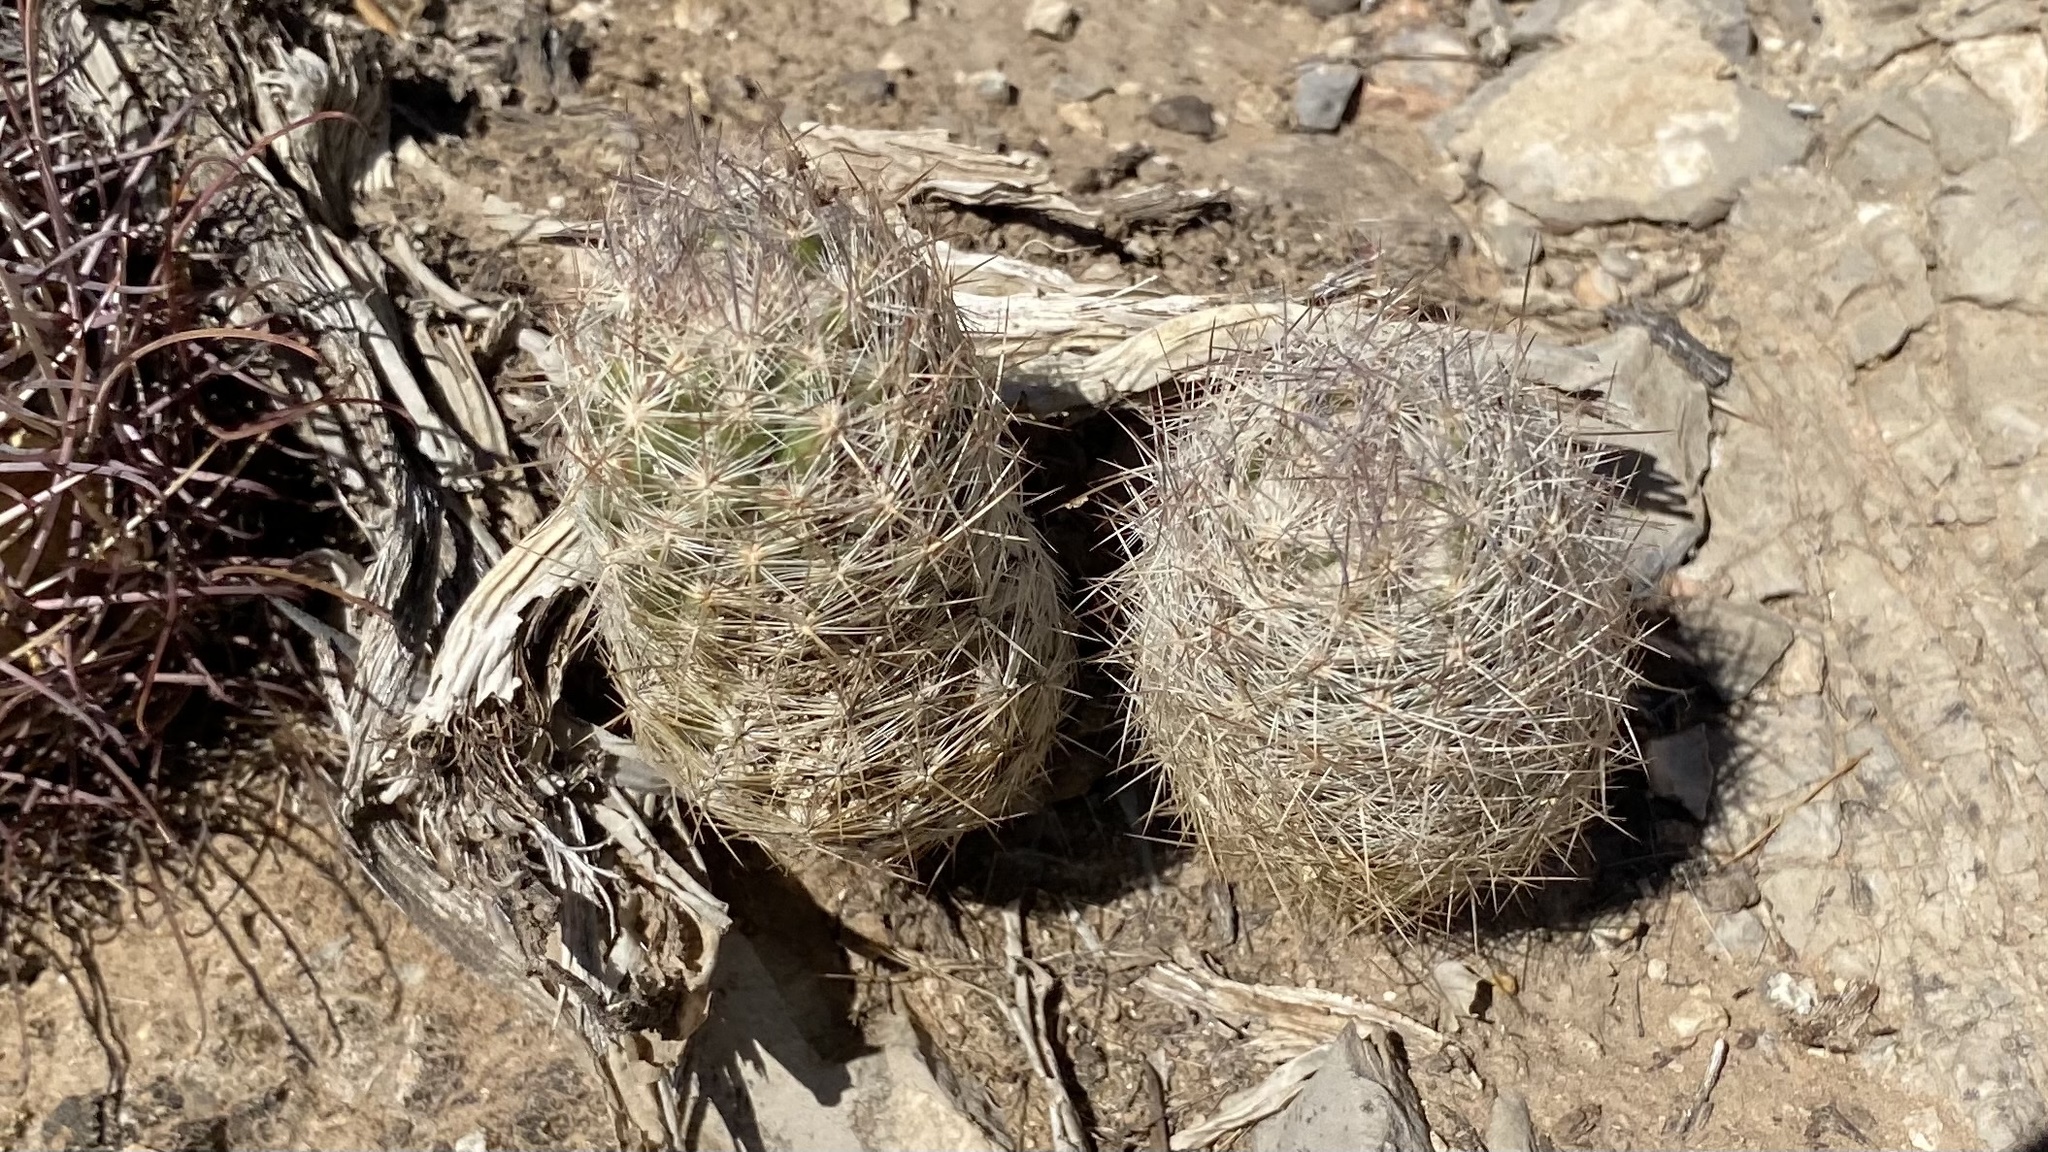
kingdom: Plantae
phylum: Tracheophyta
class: Magnoliopsida
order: Caryophyllales
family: Cactaceae
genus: Pelecyphora
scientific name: Pelecyphora tuberculosa
